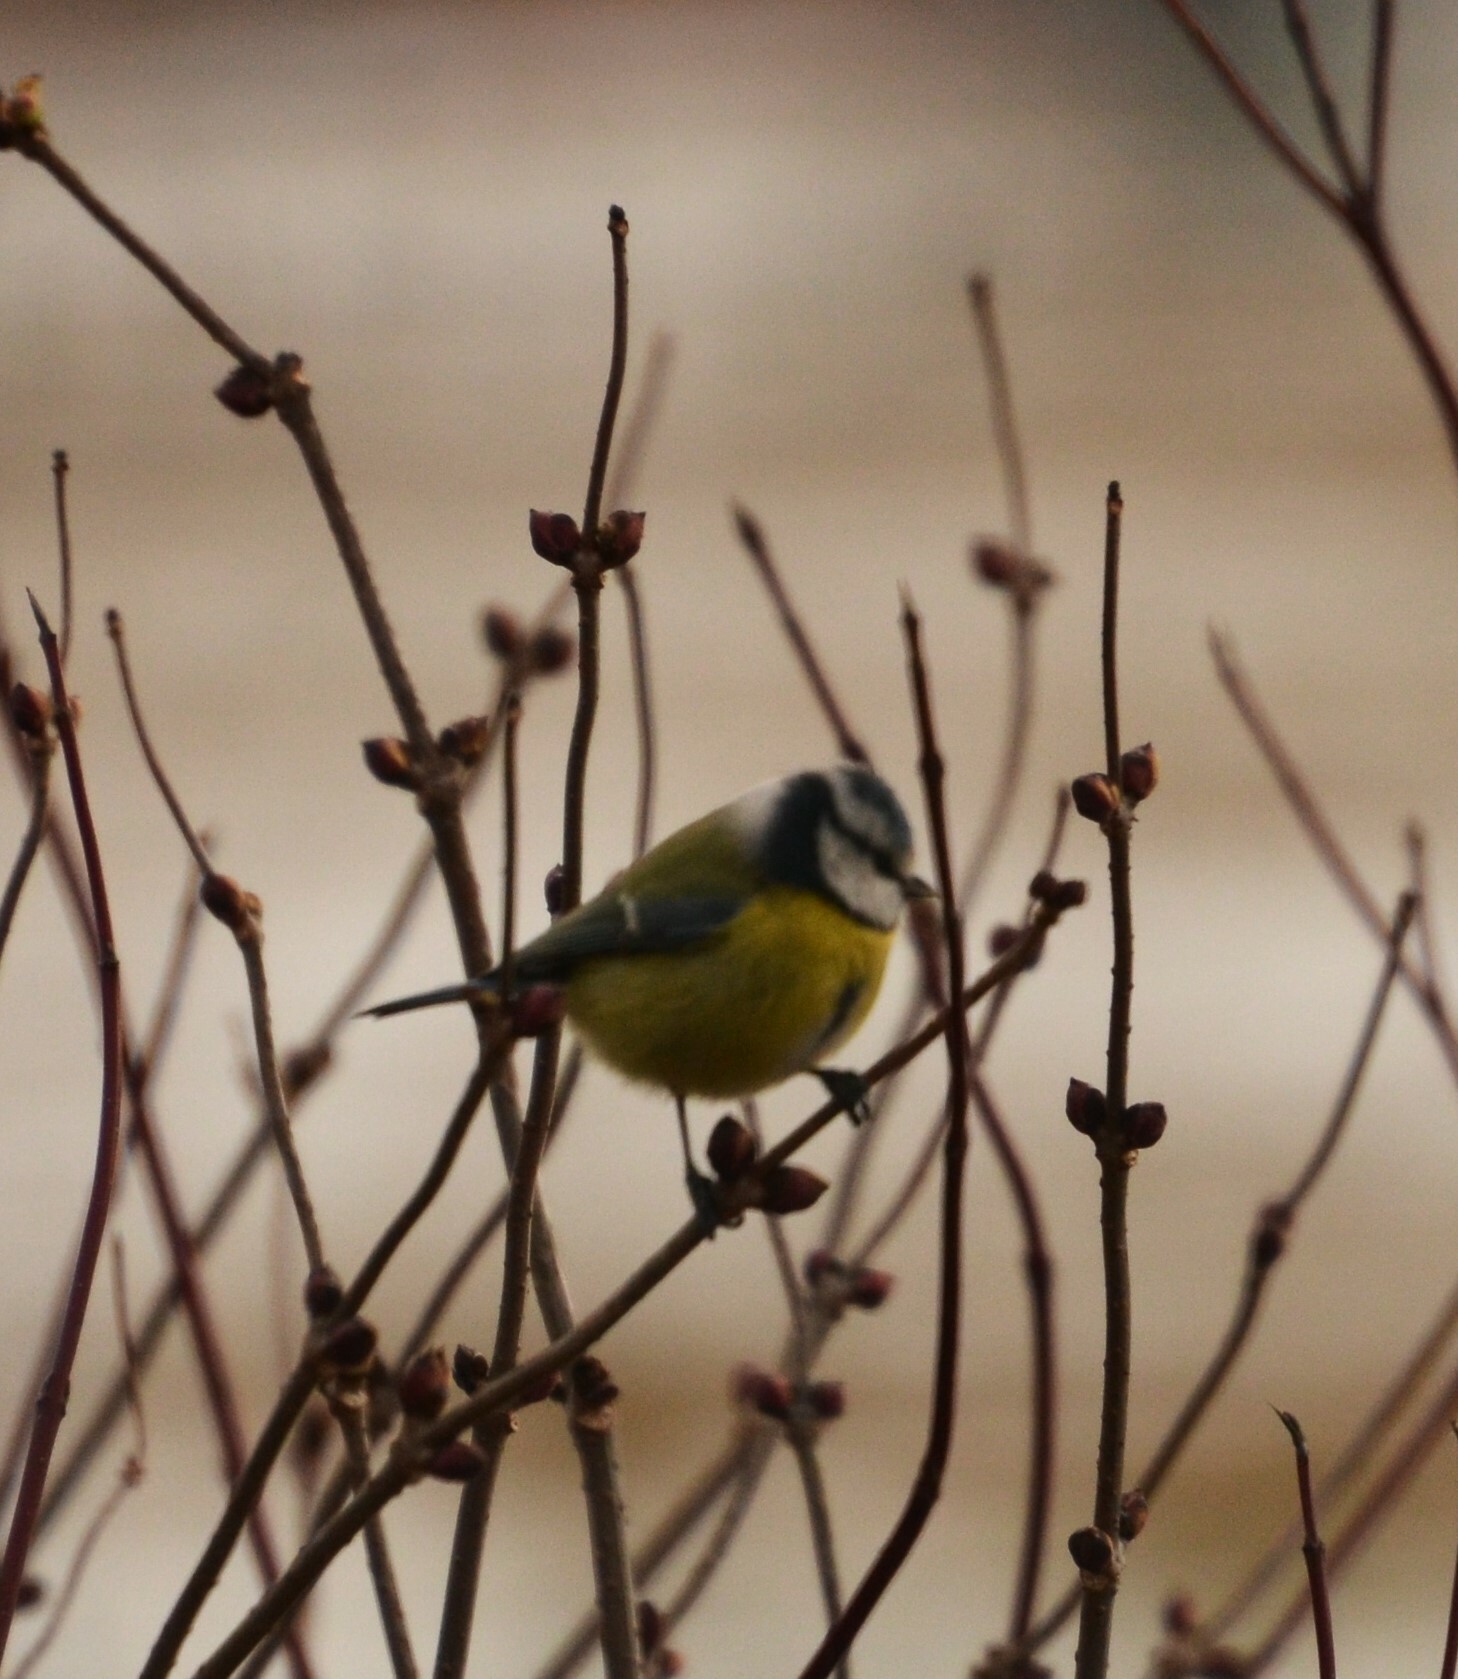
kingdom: Animalia
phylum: Chordata
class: Aves
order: Passeriformes
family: Paridae
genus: Cyanistes
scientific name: Cyanistes caeruleus
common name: Eurasian blue tit
